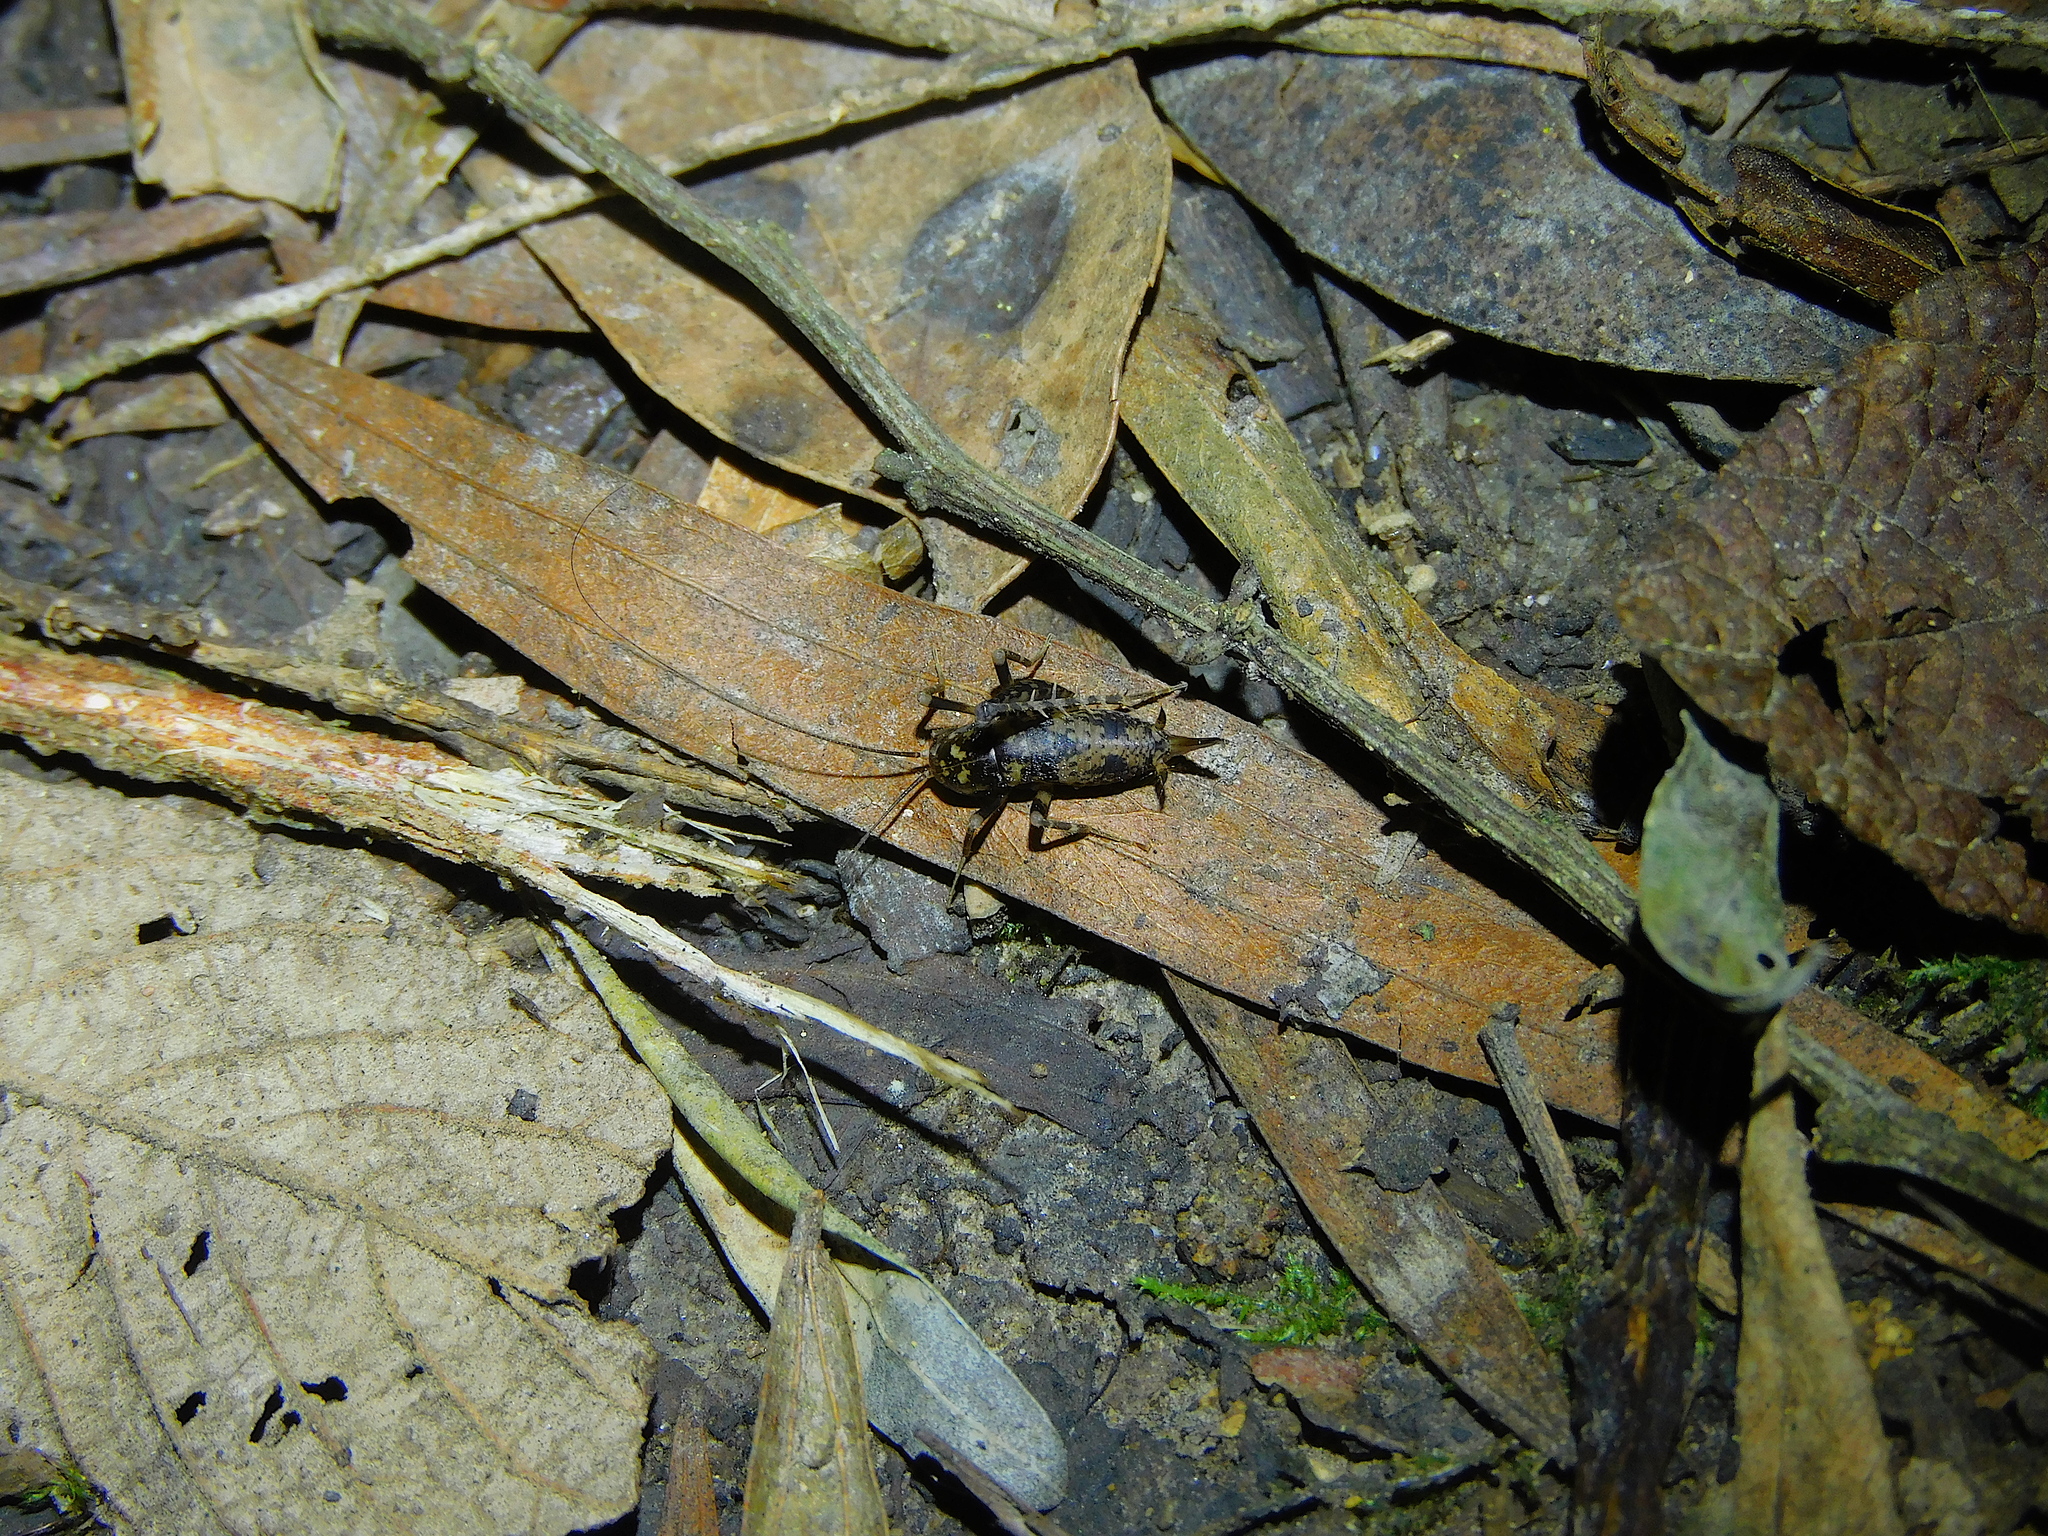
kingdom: Animalia
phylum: Arthropoda
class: Insecta
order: Orthoptera
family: Rhaphidophoridae
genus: Parvotettix
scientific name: Parvotettix domesticus
